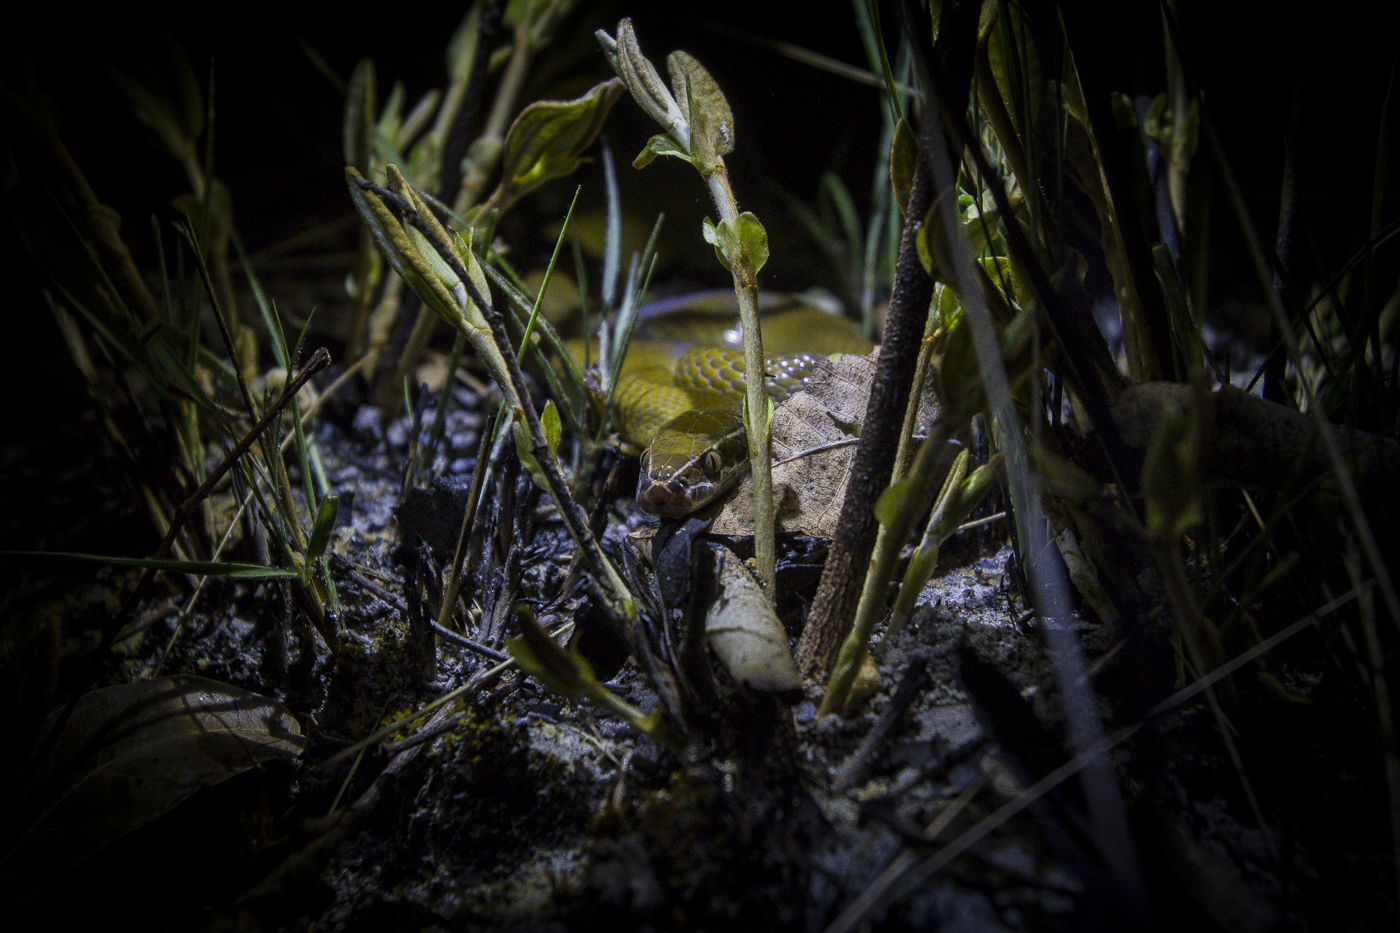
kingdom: Animalia
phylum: Chordata
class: Squamata
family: Lamprophiidae
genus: Boaedon
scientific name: Boaedon fradei
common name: Frade’s brown house snake
